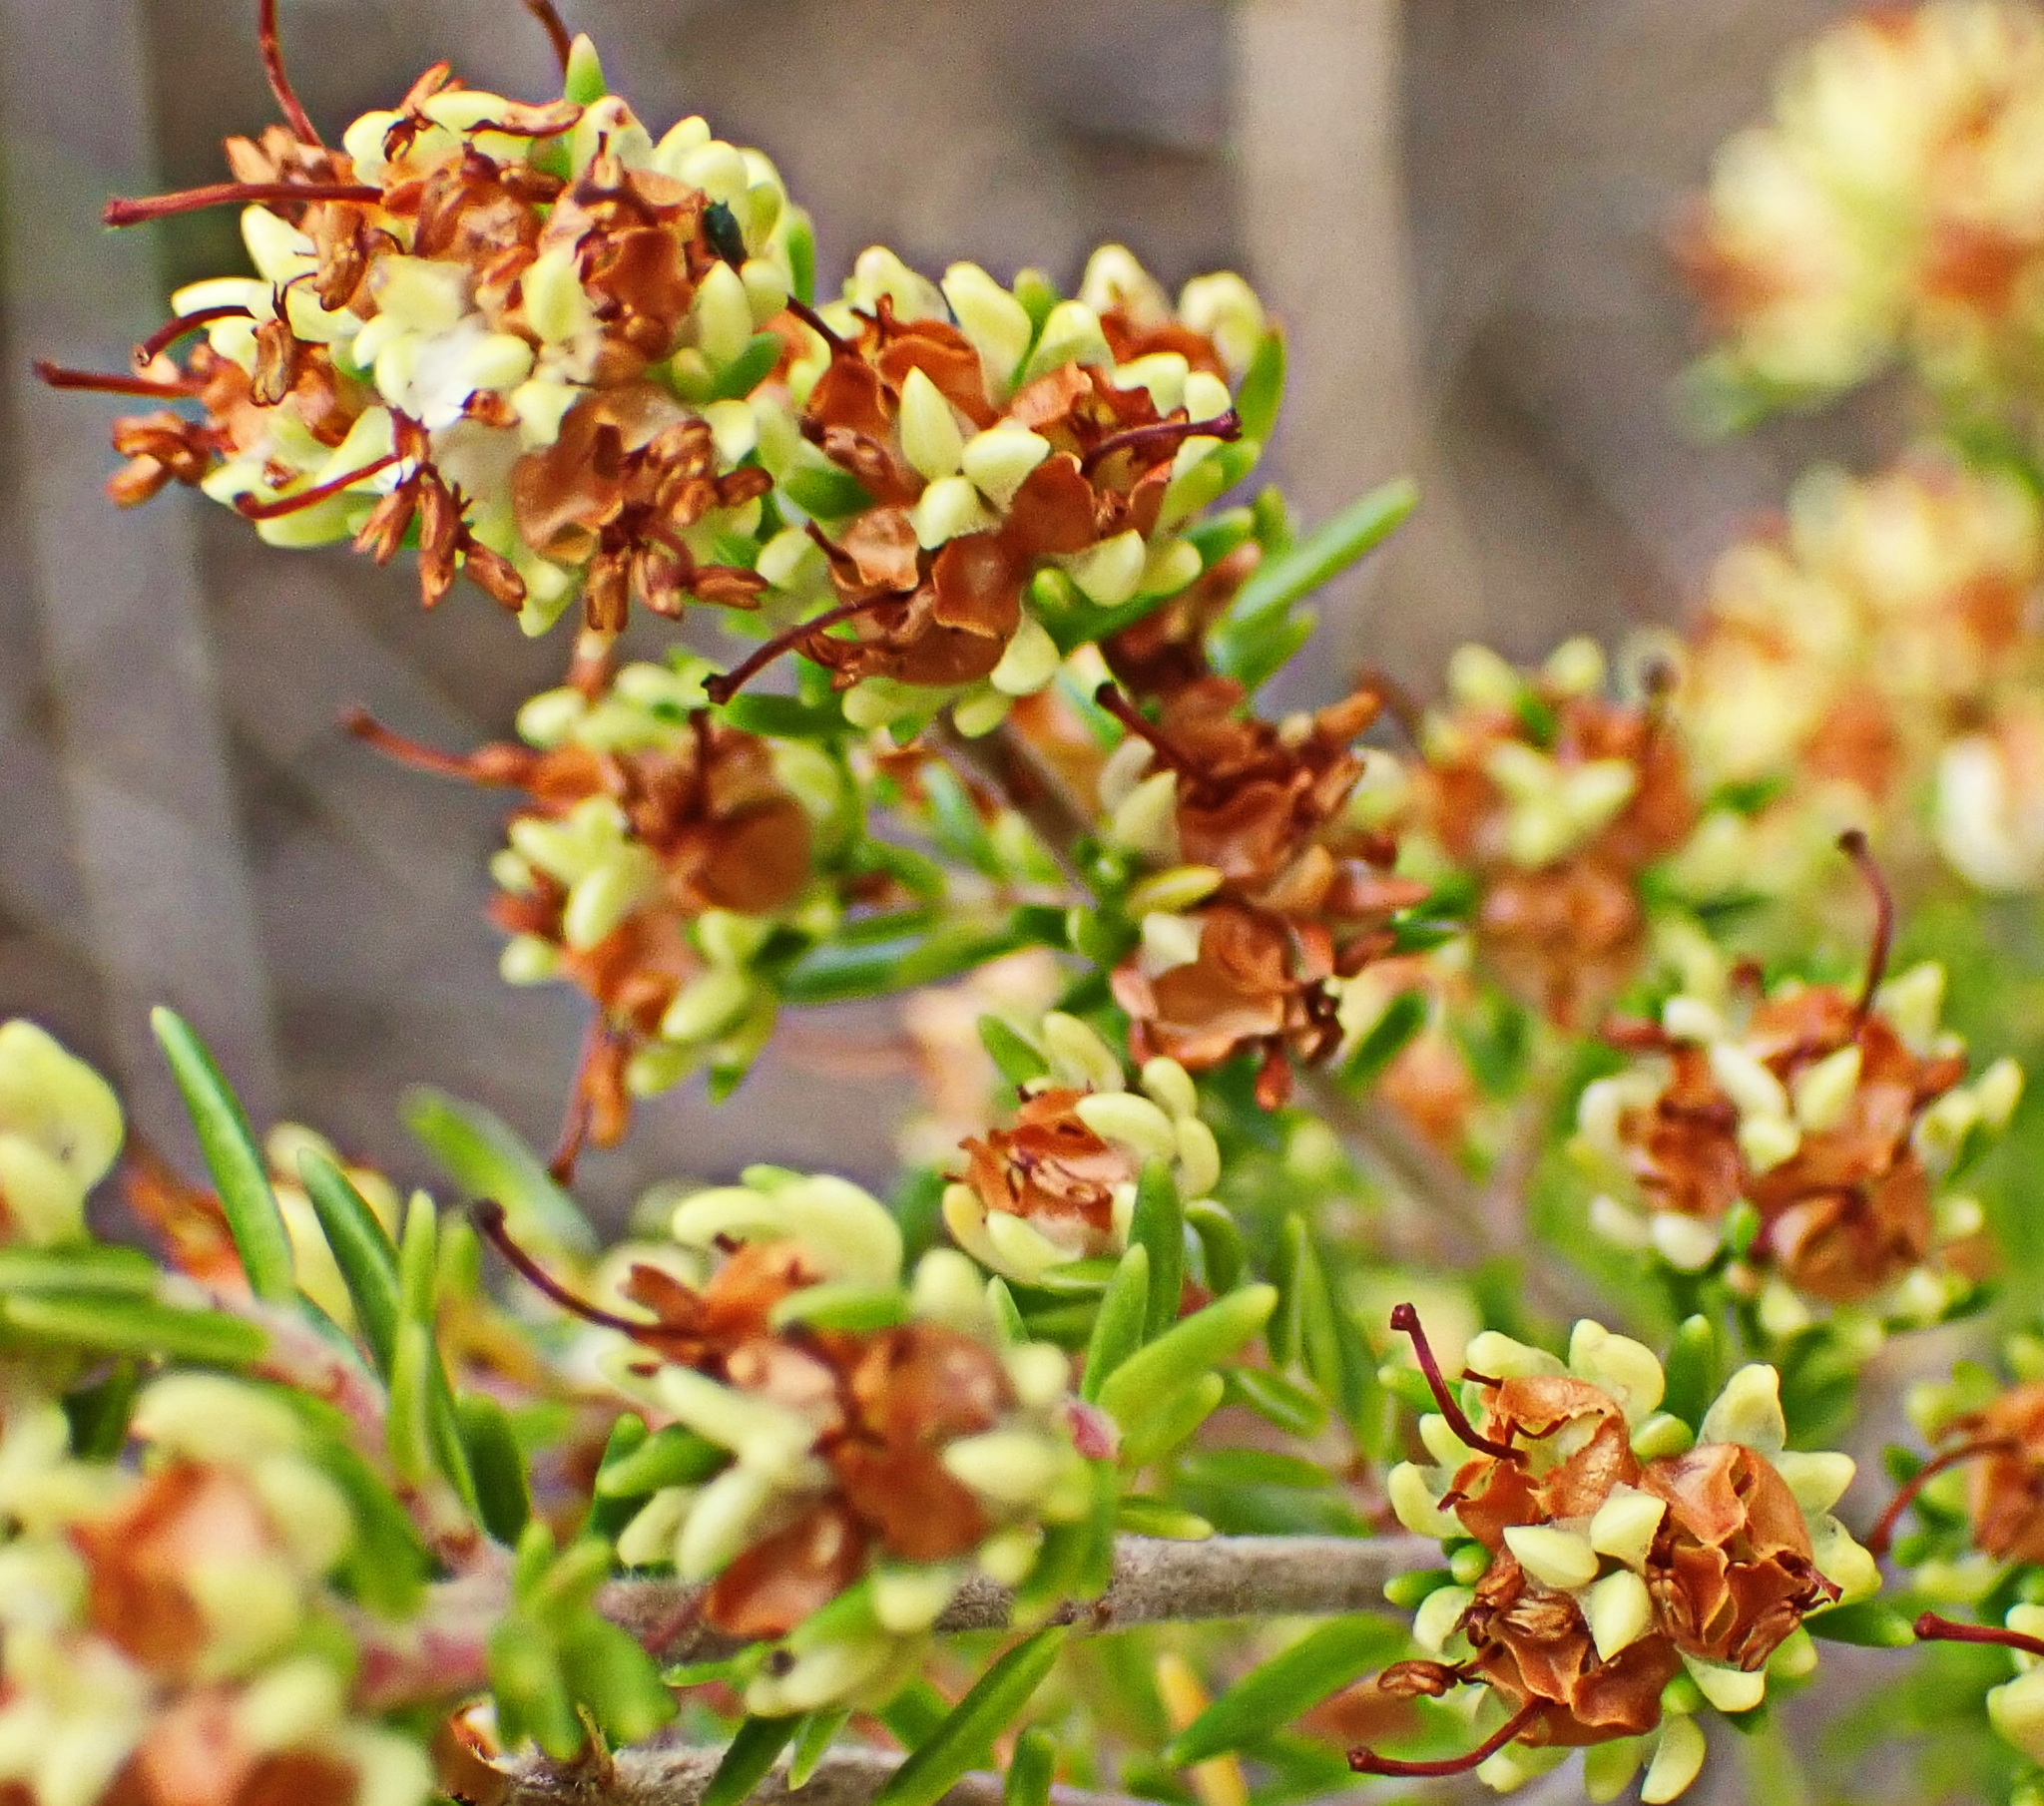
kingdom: Plantae
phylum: Tracheophyta
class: Magnoliopsida
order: Ericales
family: Ericaceae
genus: Erica
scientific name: Erica glumiflora
